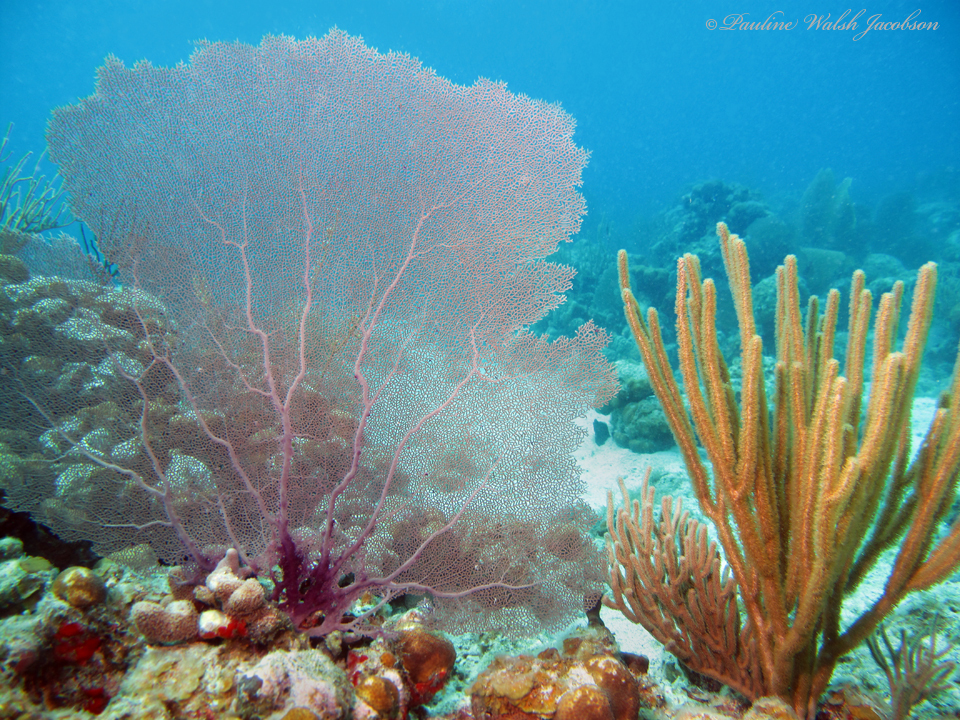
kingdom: Animalia
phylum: Cnidaria
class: Anthozoa
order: Malacalcyonacea
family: Gorgoniidae
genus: Gorgonia
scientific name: Gorgonia ventalina
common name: Common sea fan
